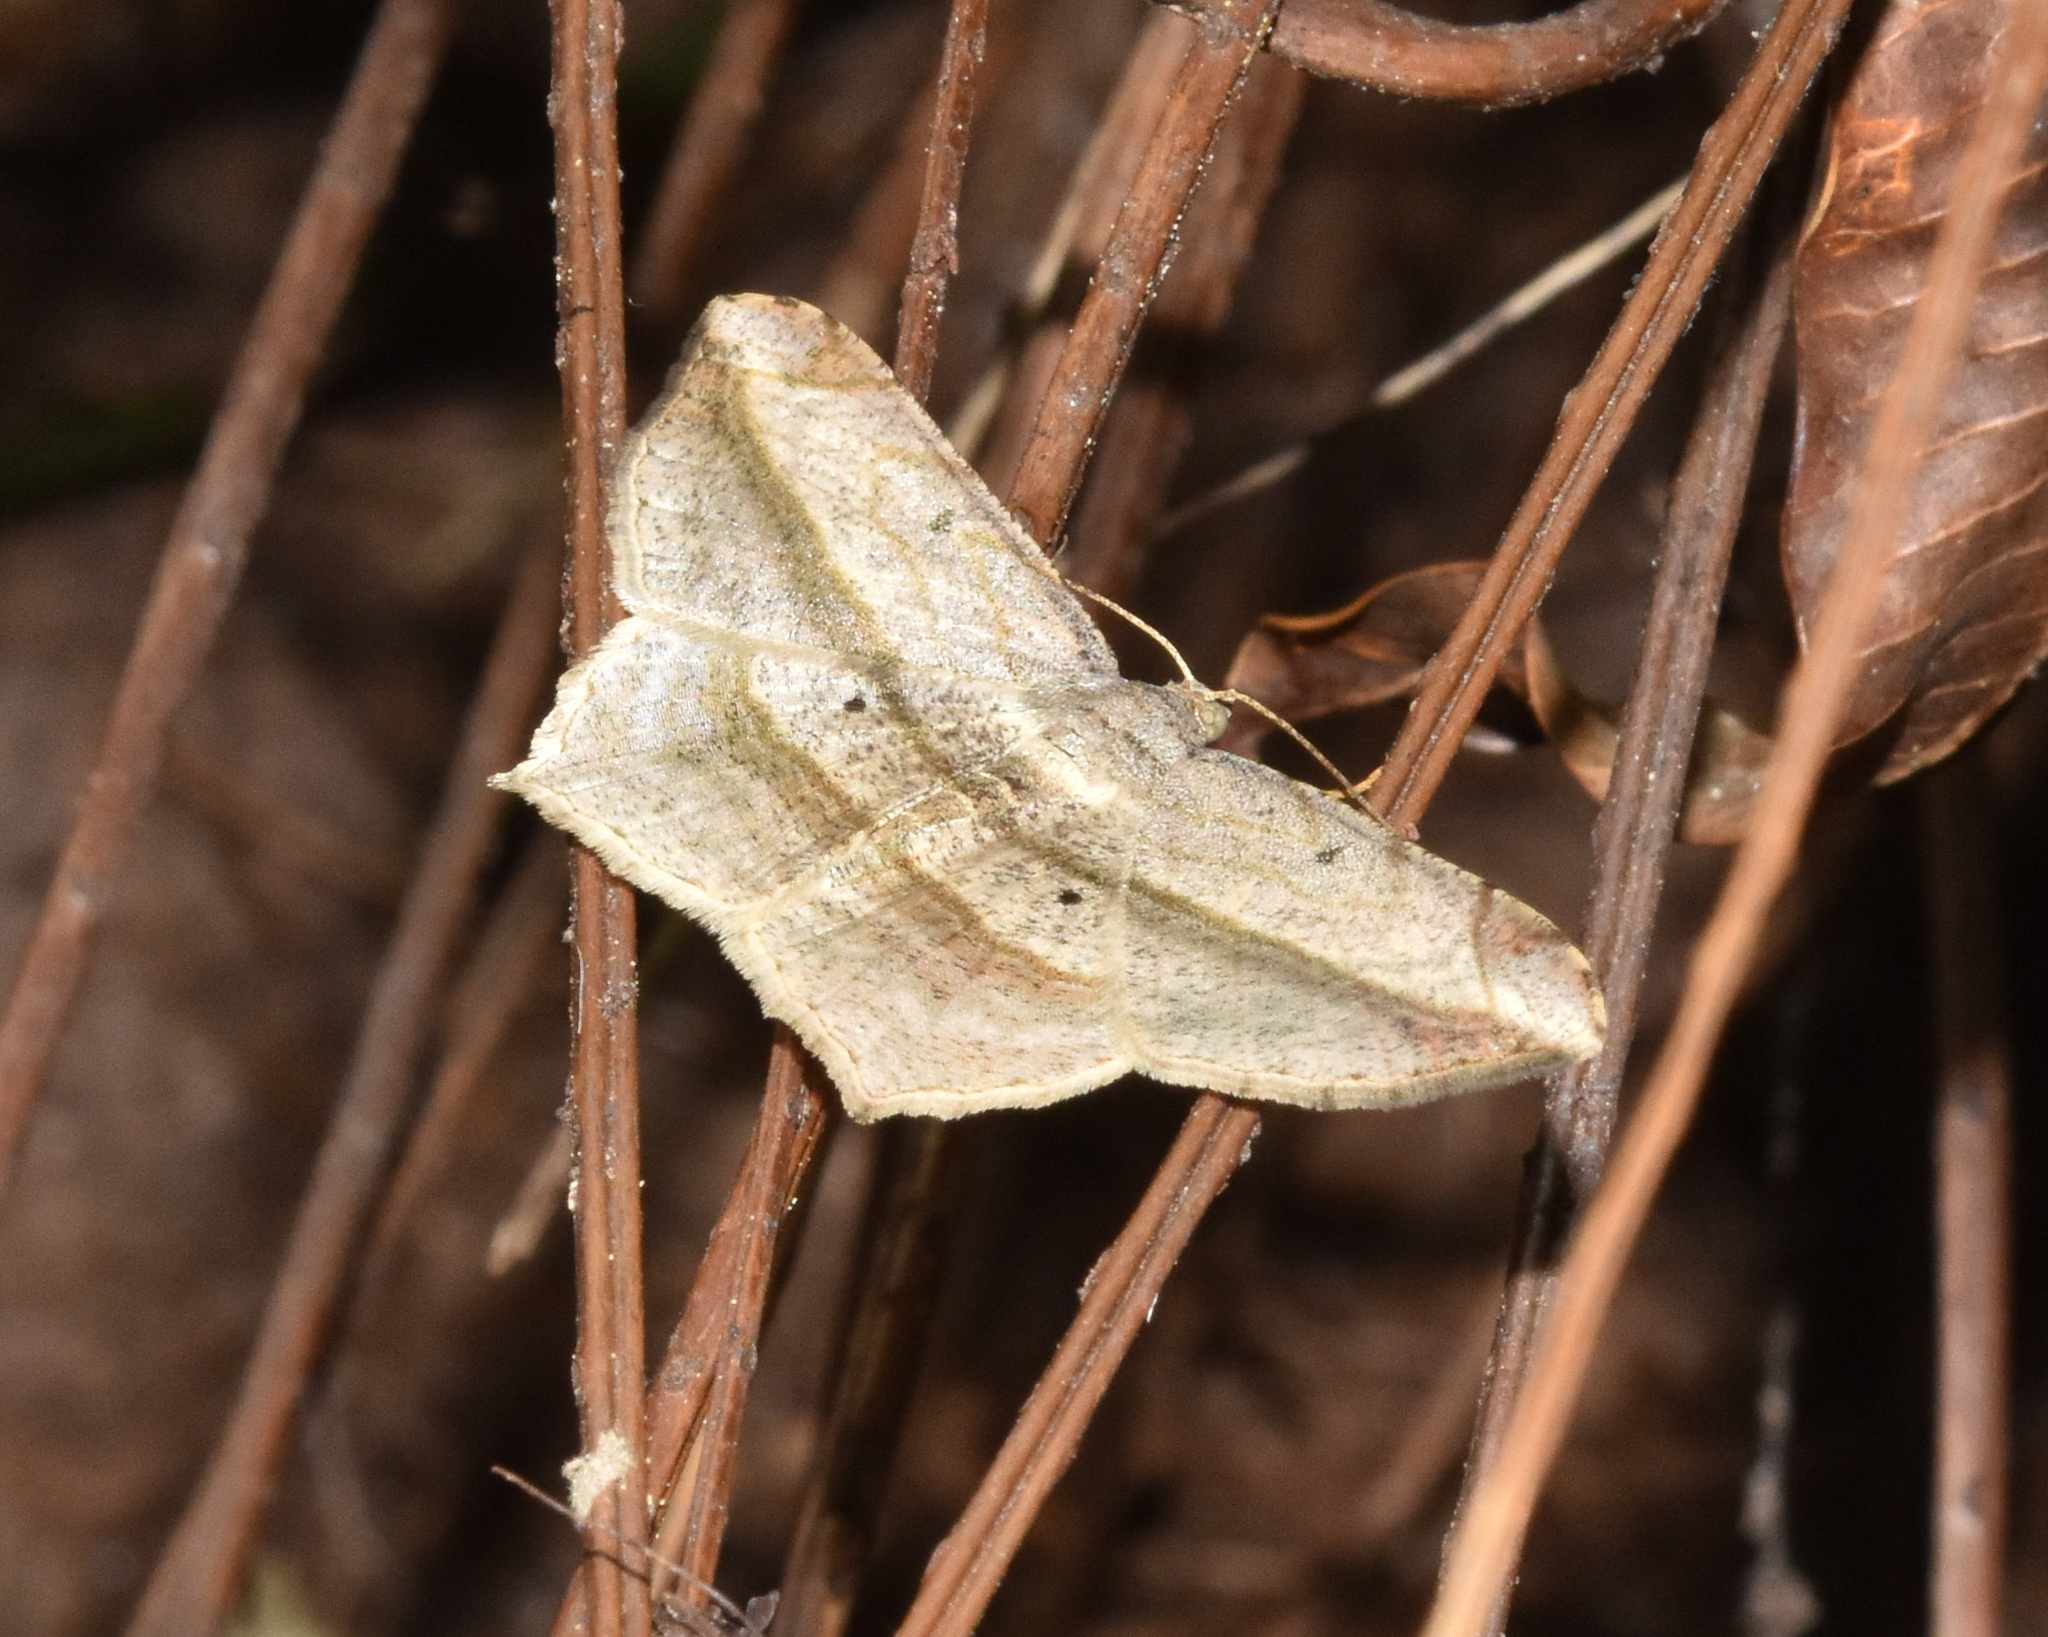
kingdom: Animalia
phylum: Arthropoda
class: Insecta
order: Lepidoptera
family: Geometridae
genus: Chiasmia
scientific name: Chiasmia rectistriaria
